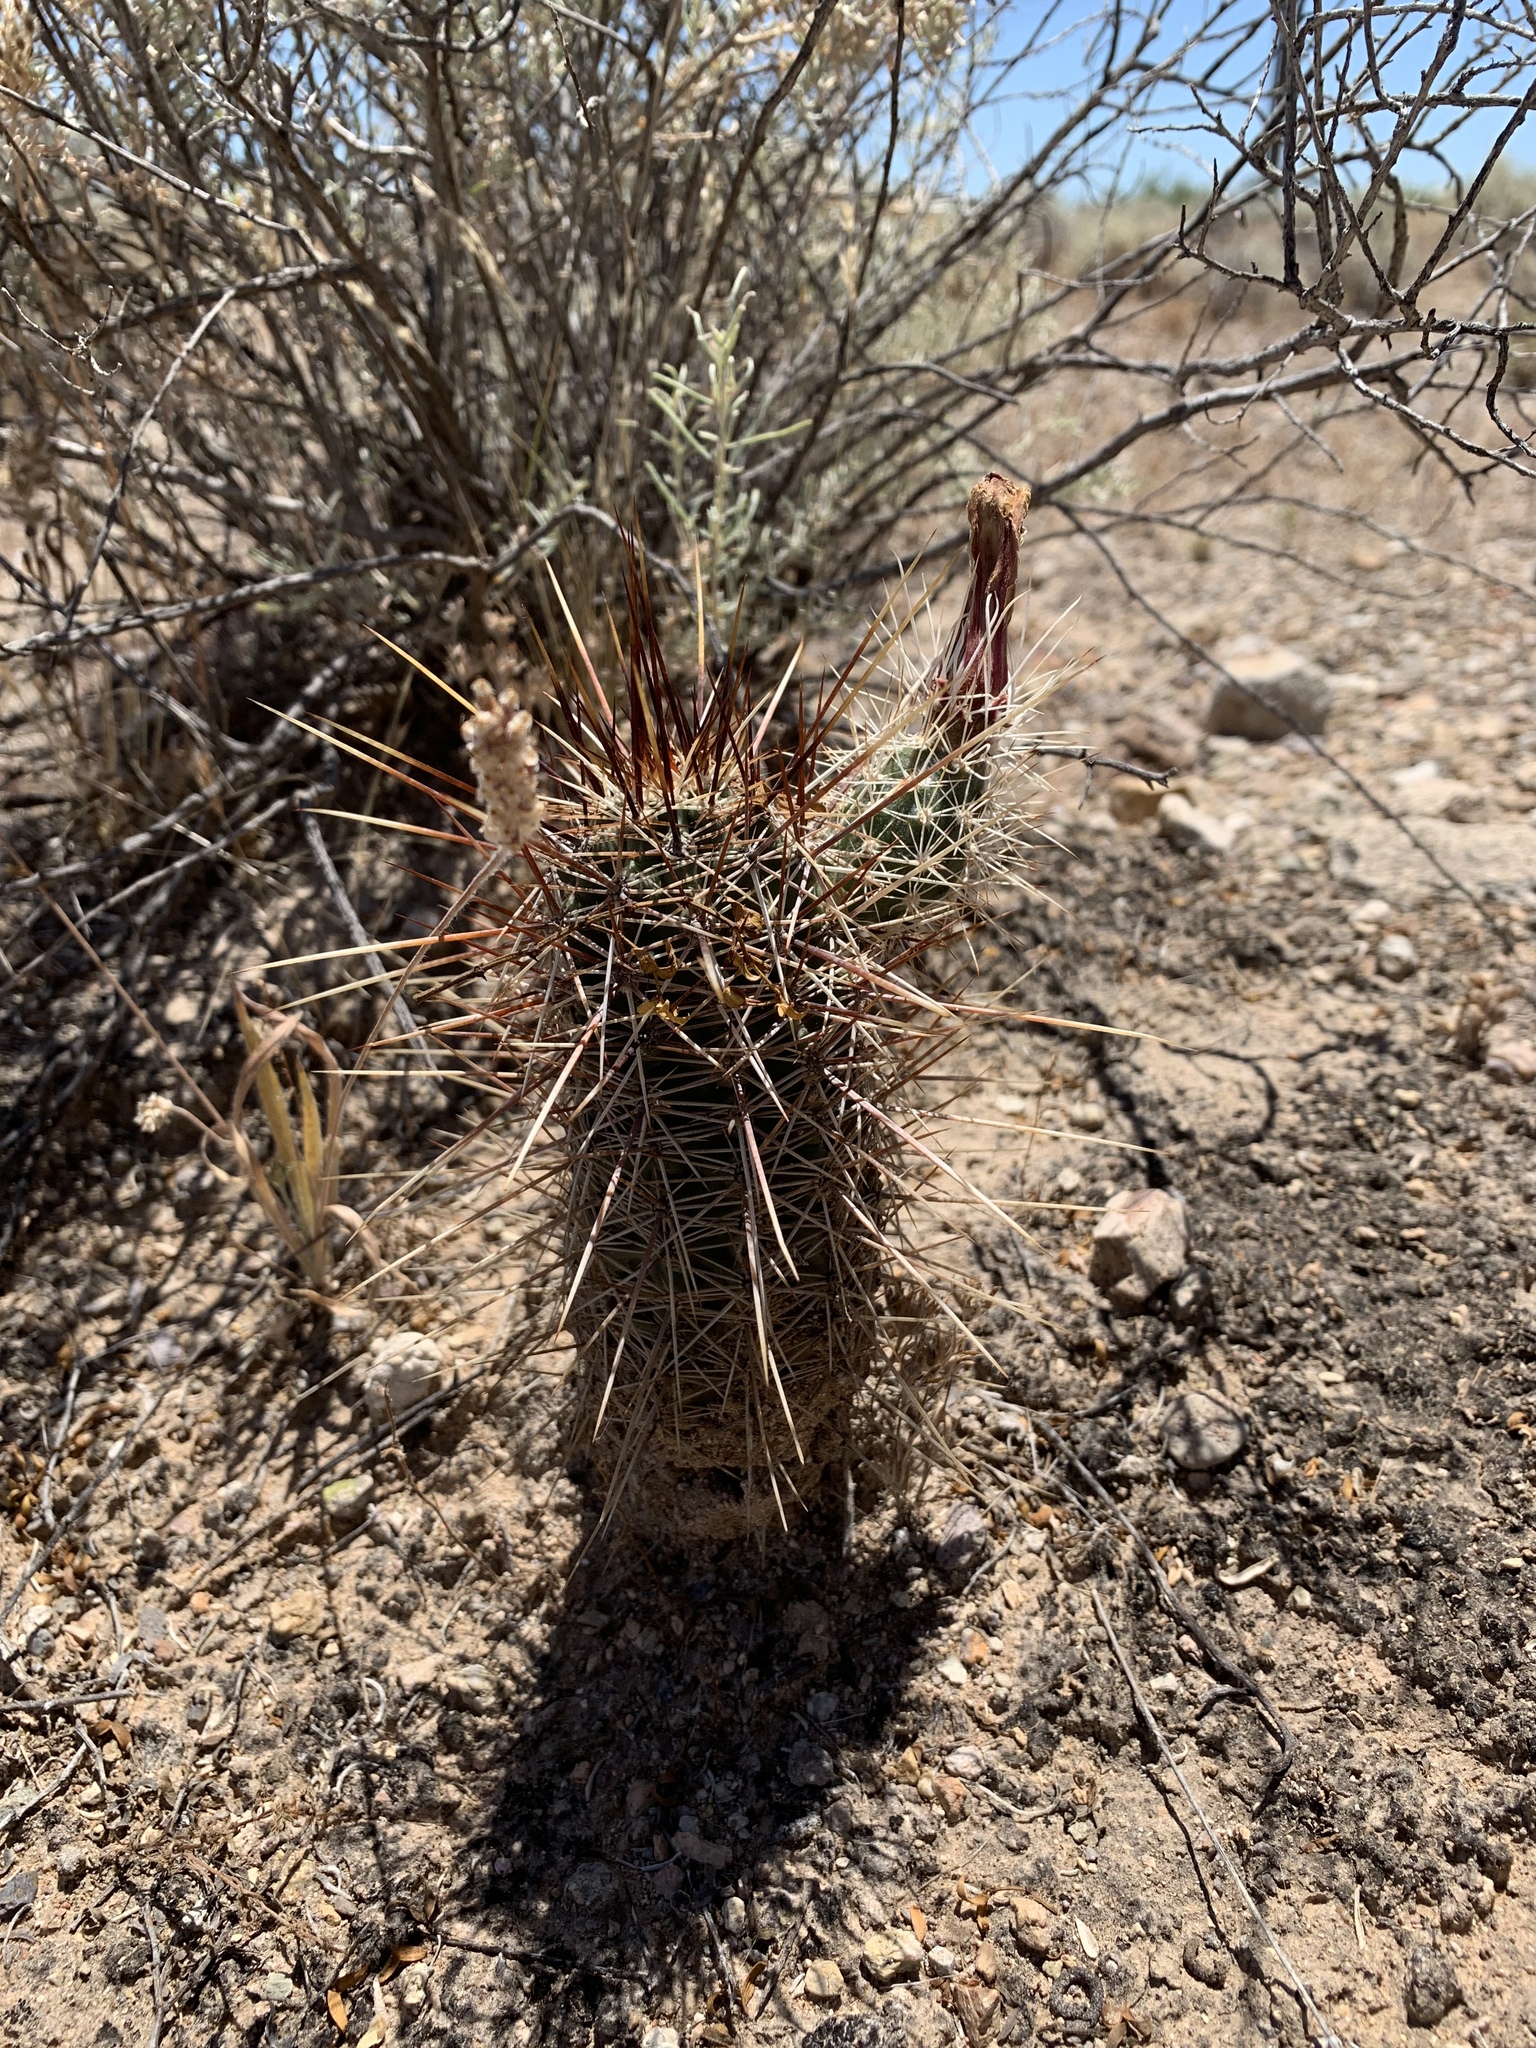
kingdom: Plantae
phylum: Tracheophyta
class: Magnoliopsida
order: Caryophyllales
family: Cactaceae
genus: Echinocereus
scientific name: Echinocereus fasciculatus
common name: Bundle hedgehog
